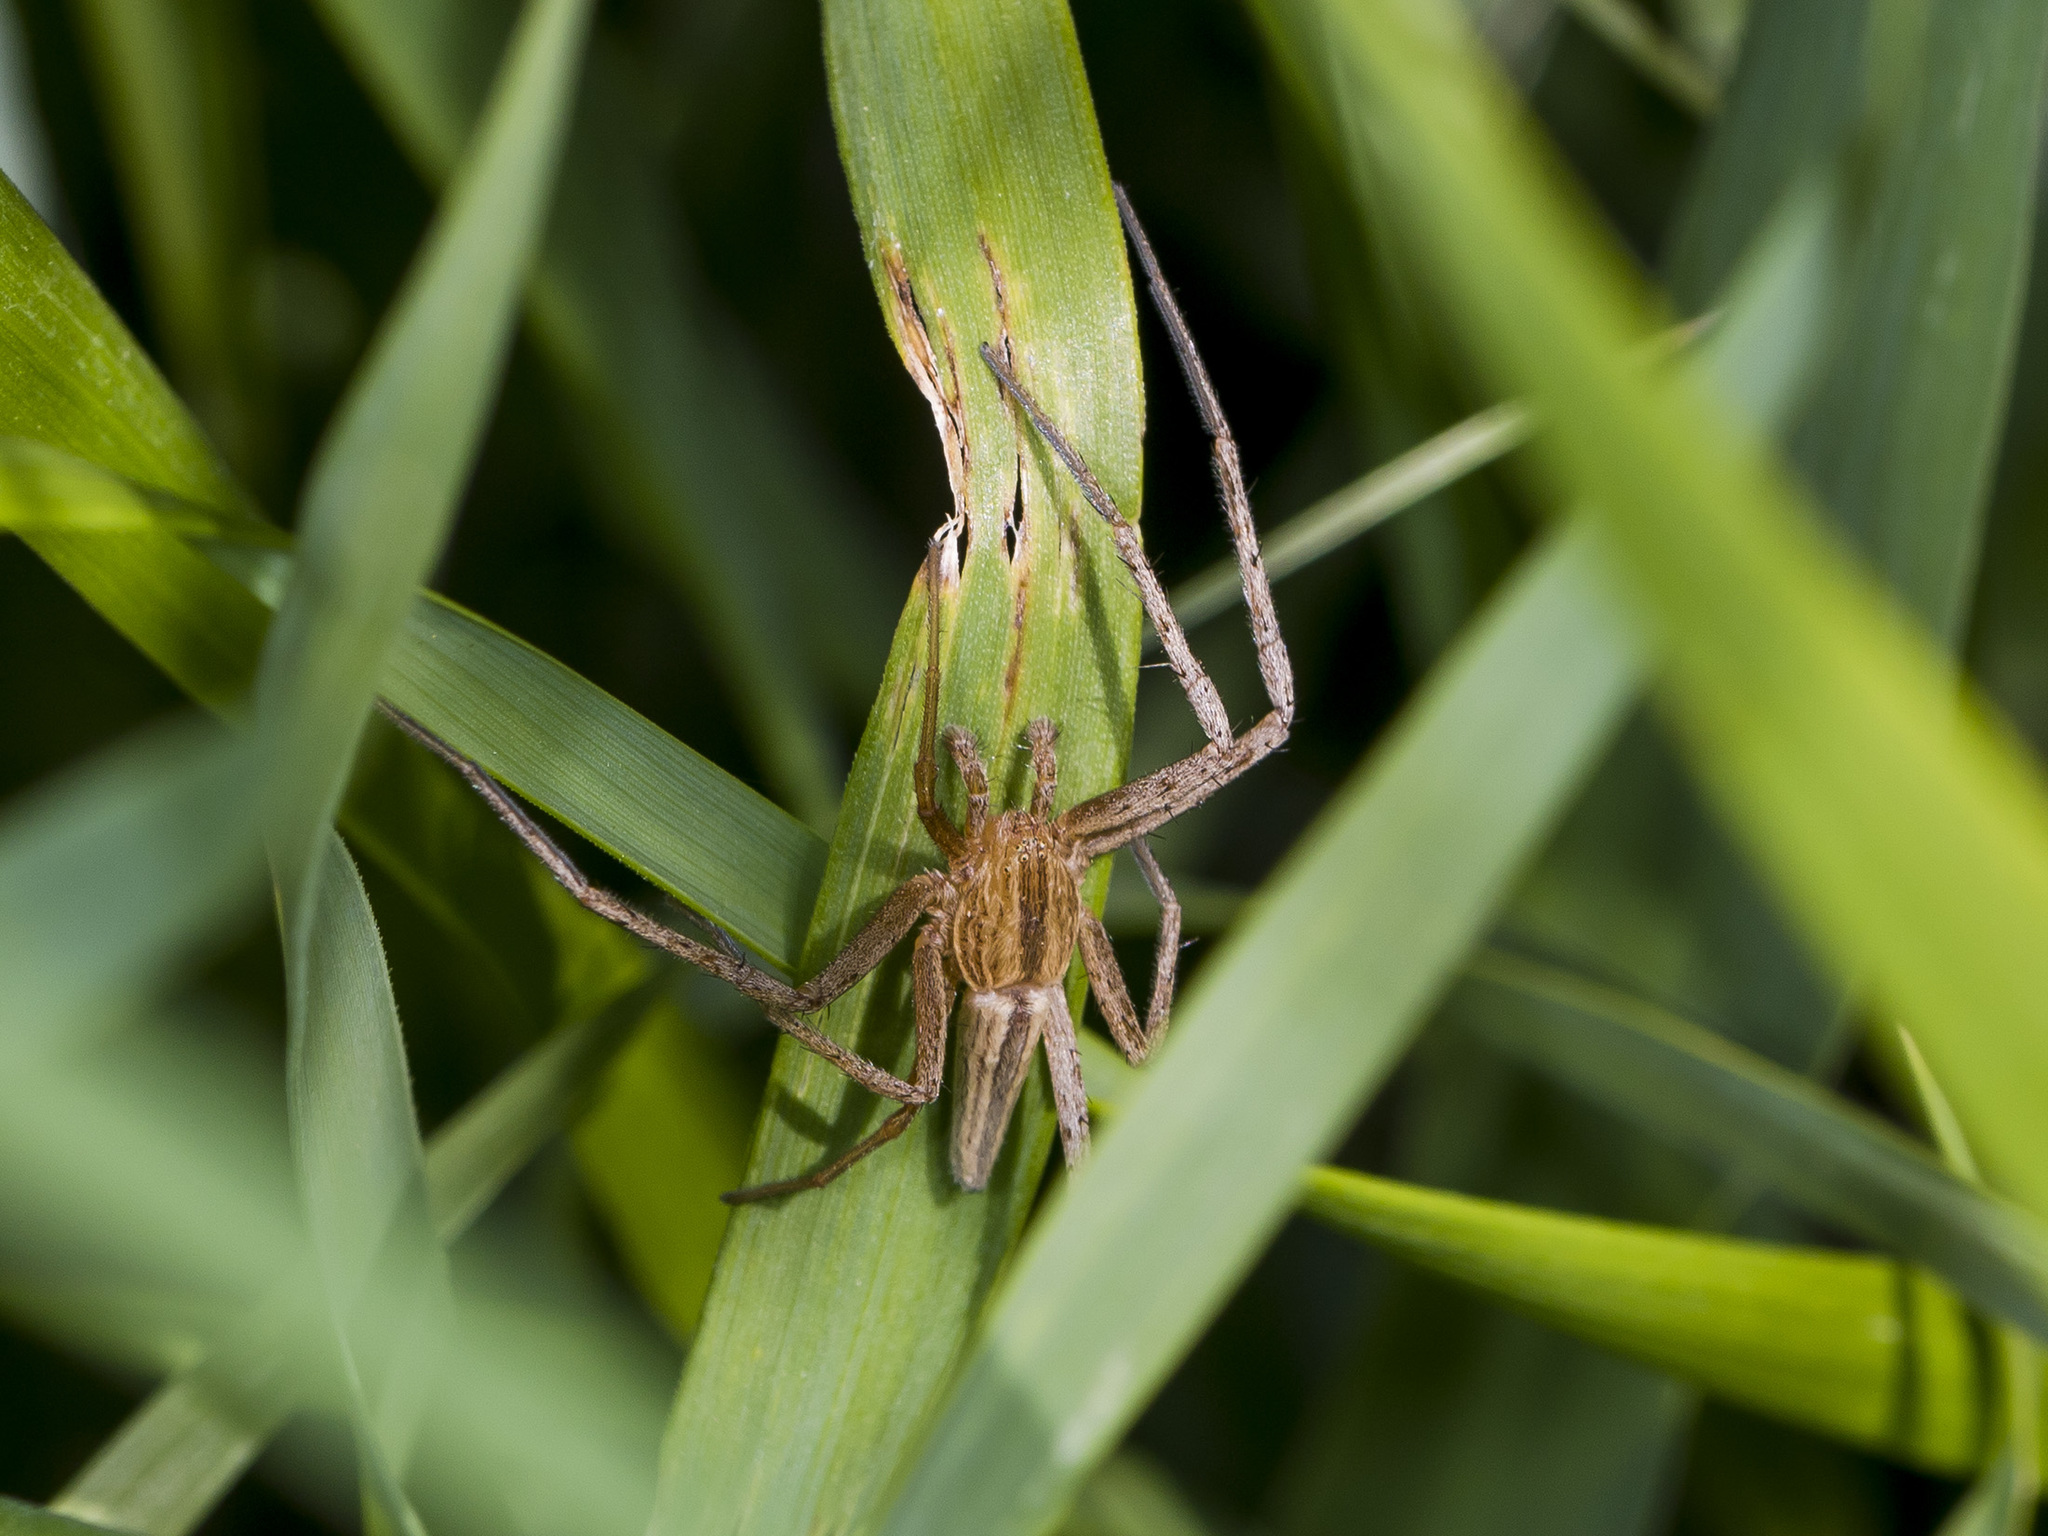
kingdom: Animalia
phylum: Arthropoda
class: Arachnida
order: Araneae
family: Philodromidae
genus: Tibellus
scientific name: Tibellus oblongus
